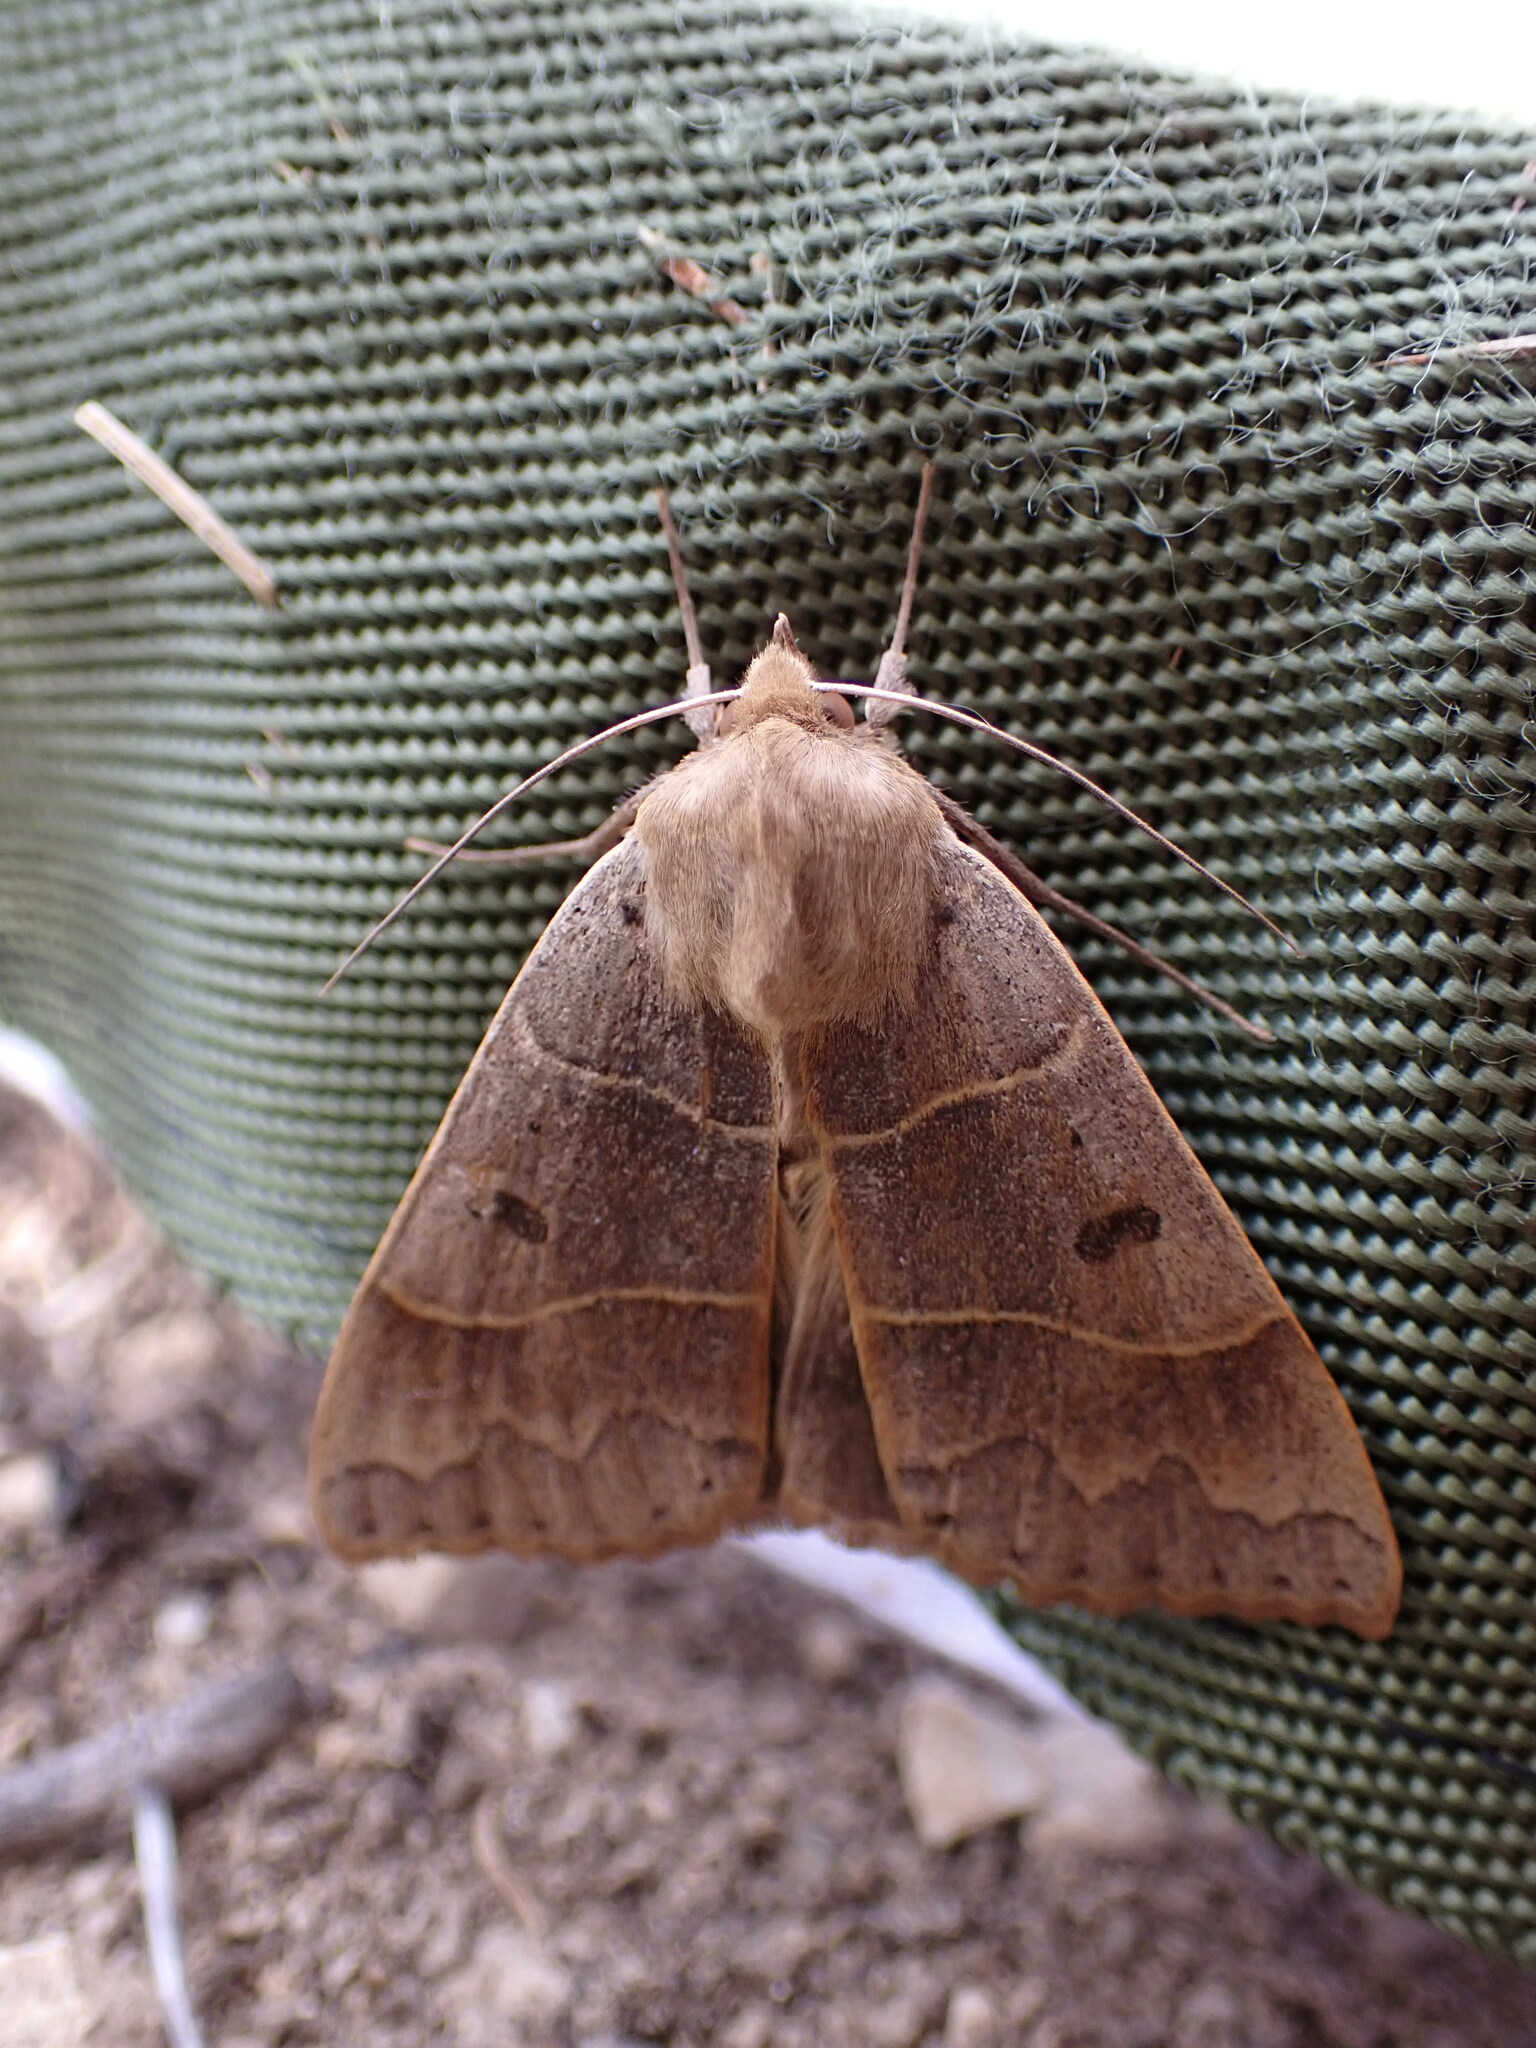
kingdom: Animalia
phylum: Arthropoda
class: Insecta
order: Lepidoptera
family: Erebidae
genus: Minucia
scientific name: Minucia lunaris
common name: Lunar double-stripe
